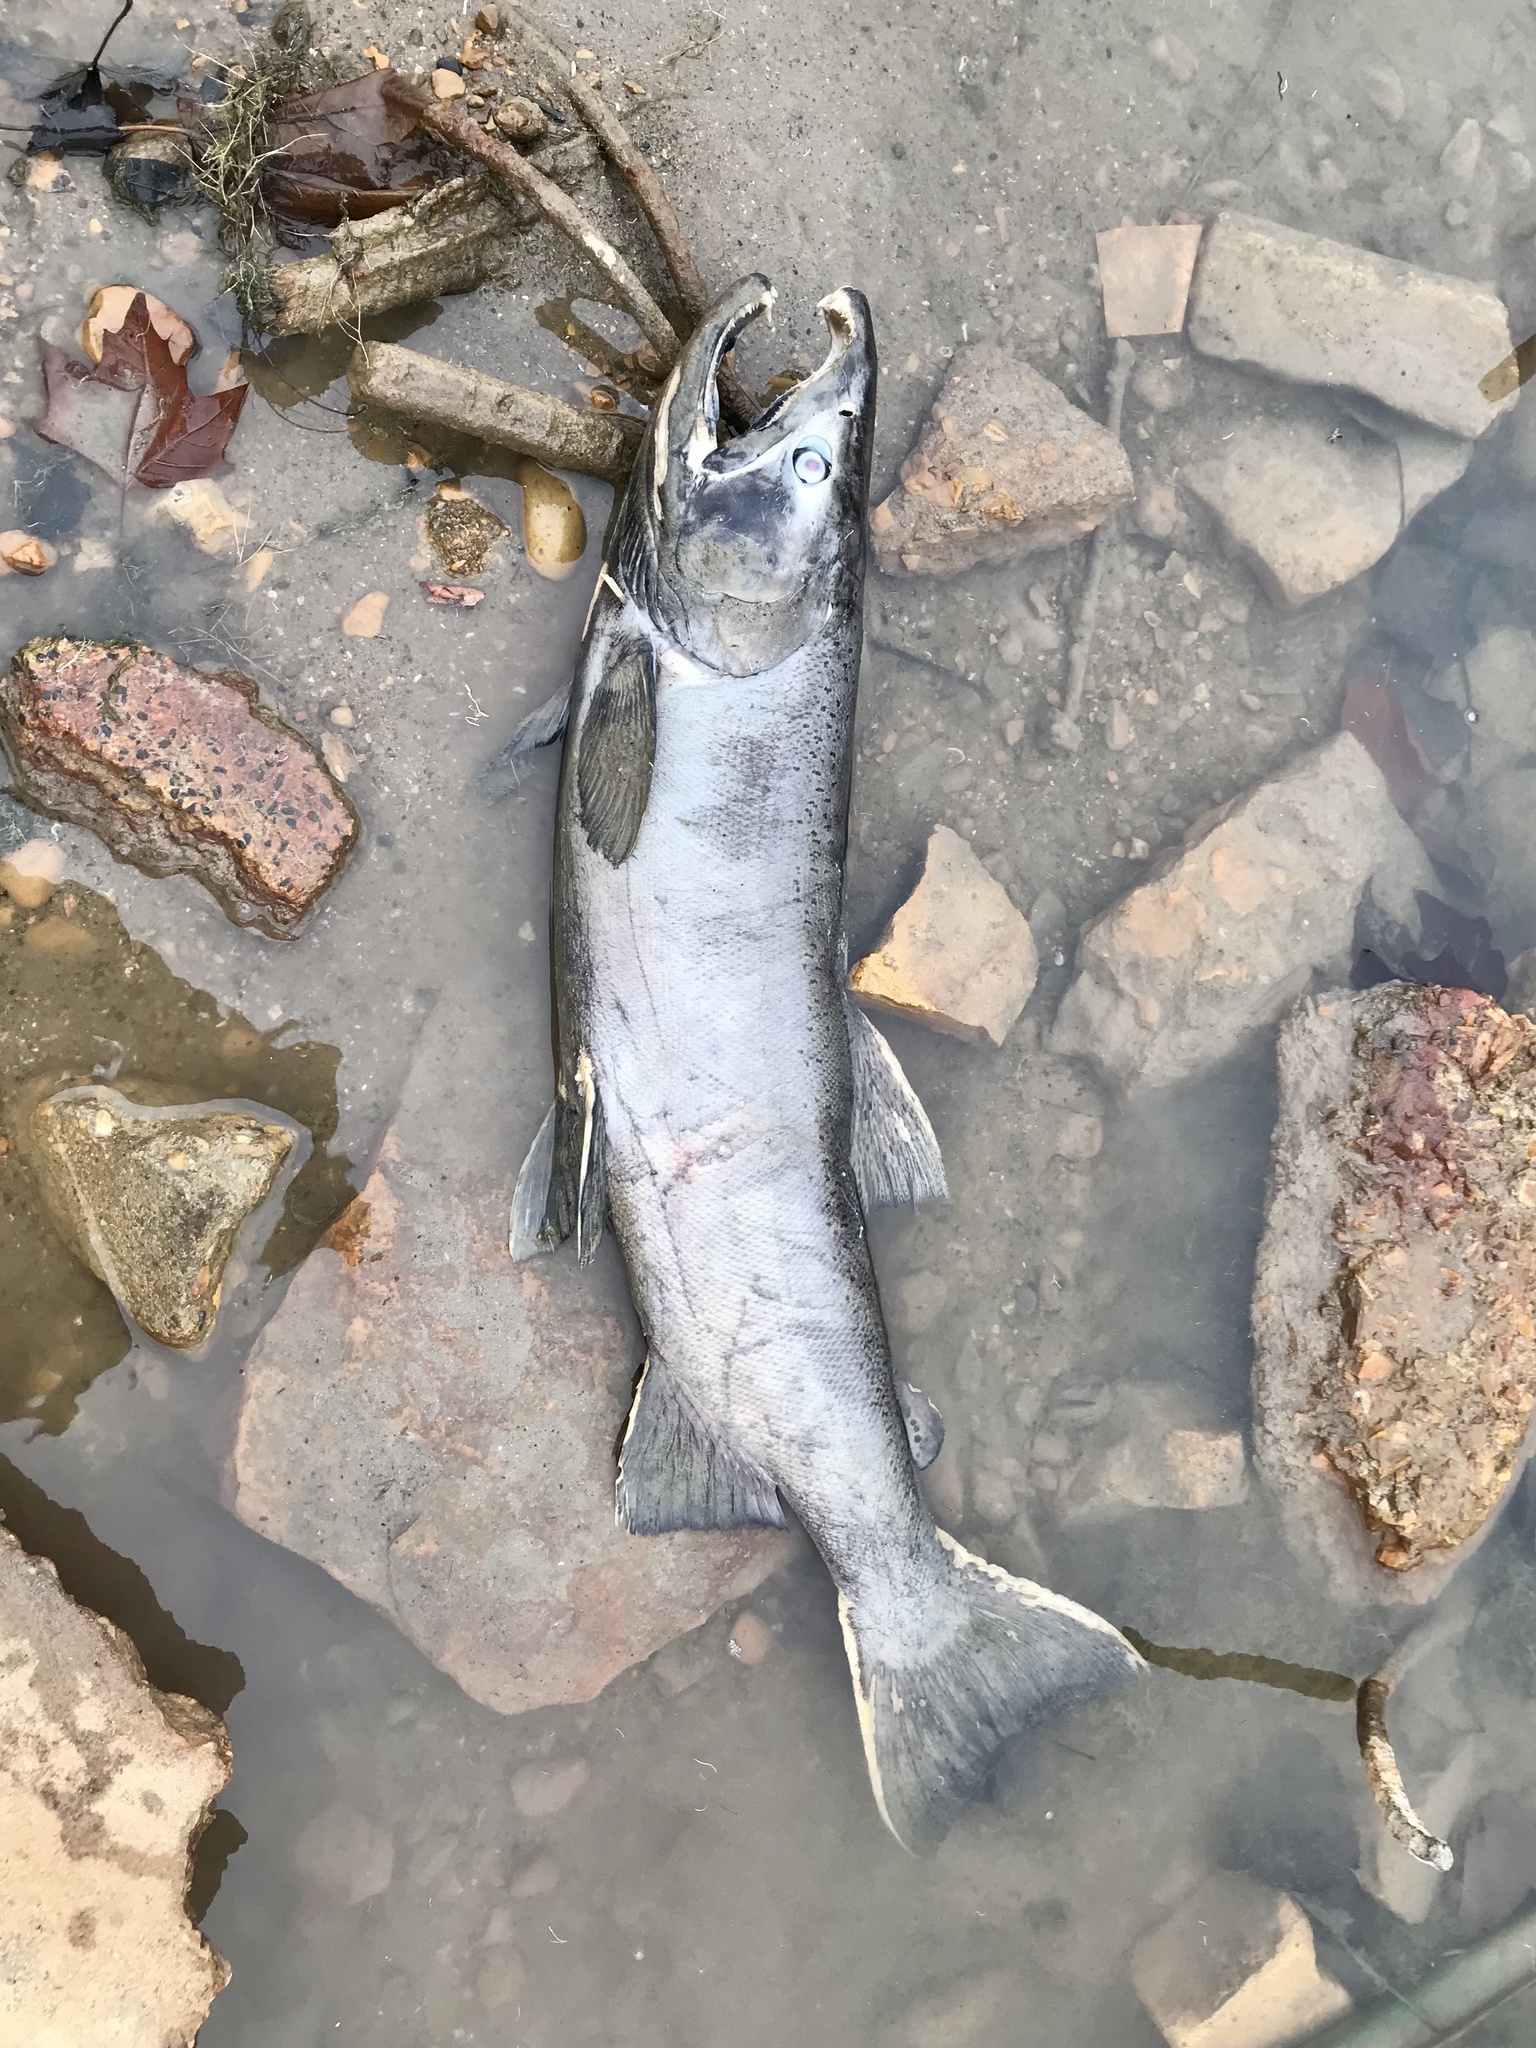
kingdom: Animalia
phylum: Chordata
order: Salmoniformes
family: Salmonidae
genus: Oncorhynchus
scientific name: Oncorhynchus kisutch
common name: Coho salmon
